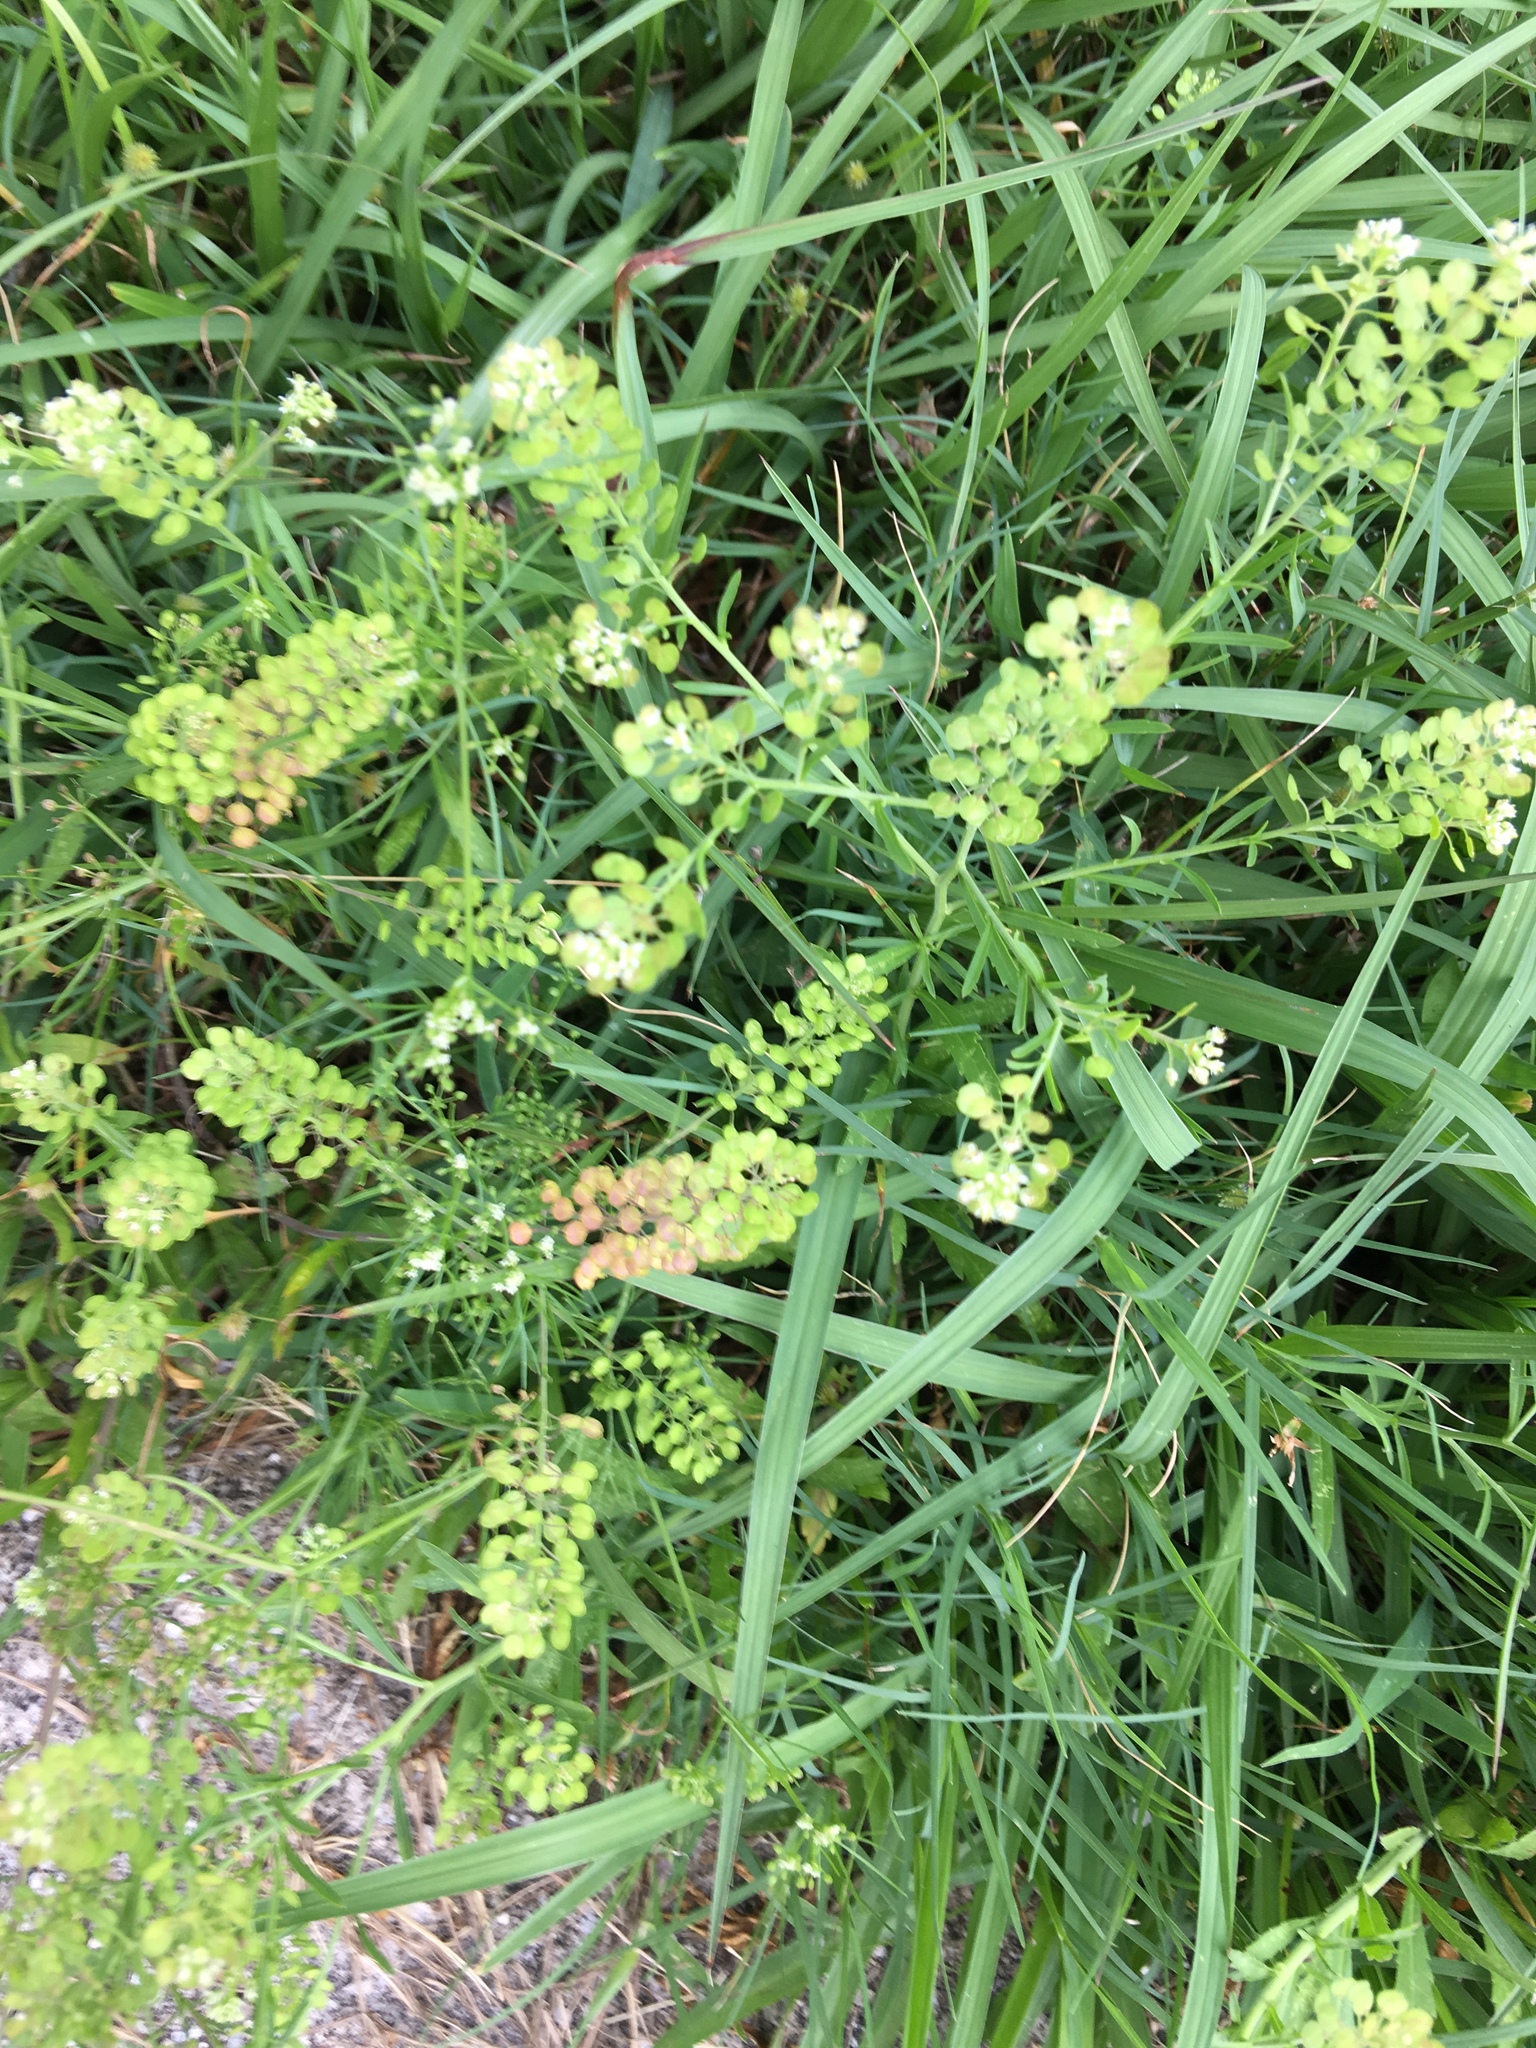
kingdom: Plantae
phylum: Tracheophyta
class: Magnoliopsida
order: Brassicales
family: Brassicaceae
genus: Lepidium
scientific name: Lepidium virginicum
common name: Least pepperwort
